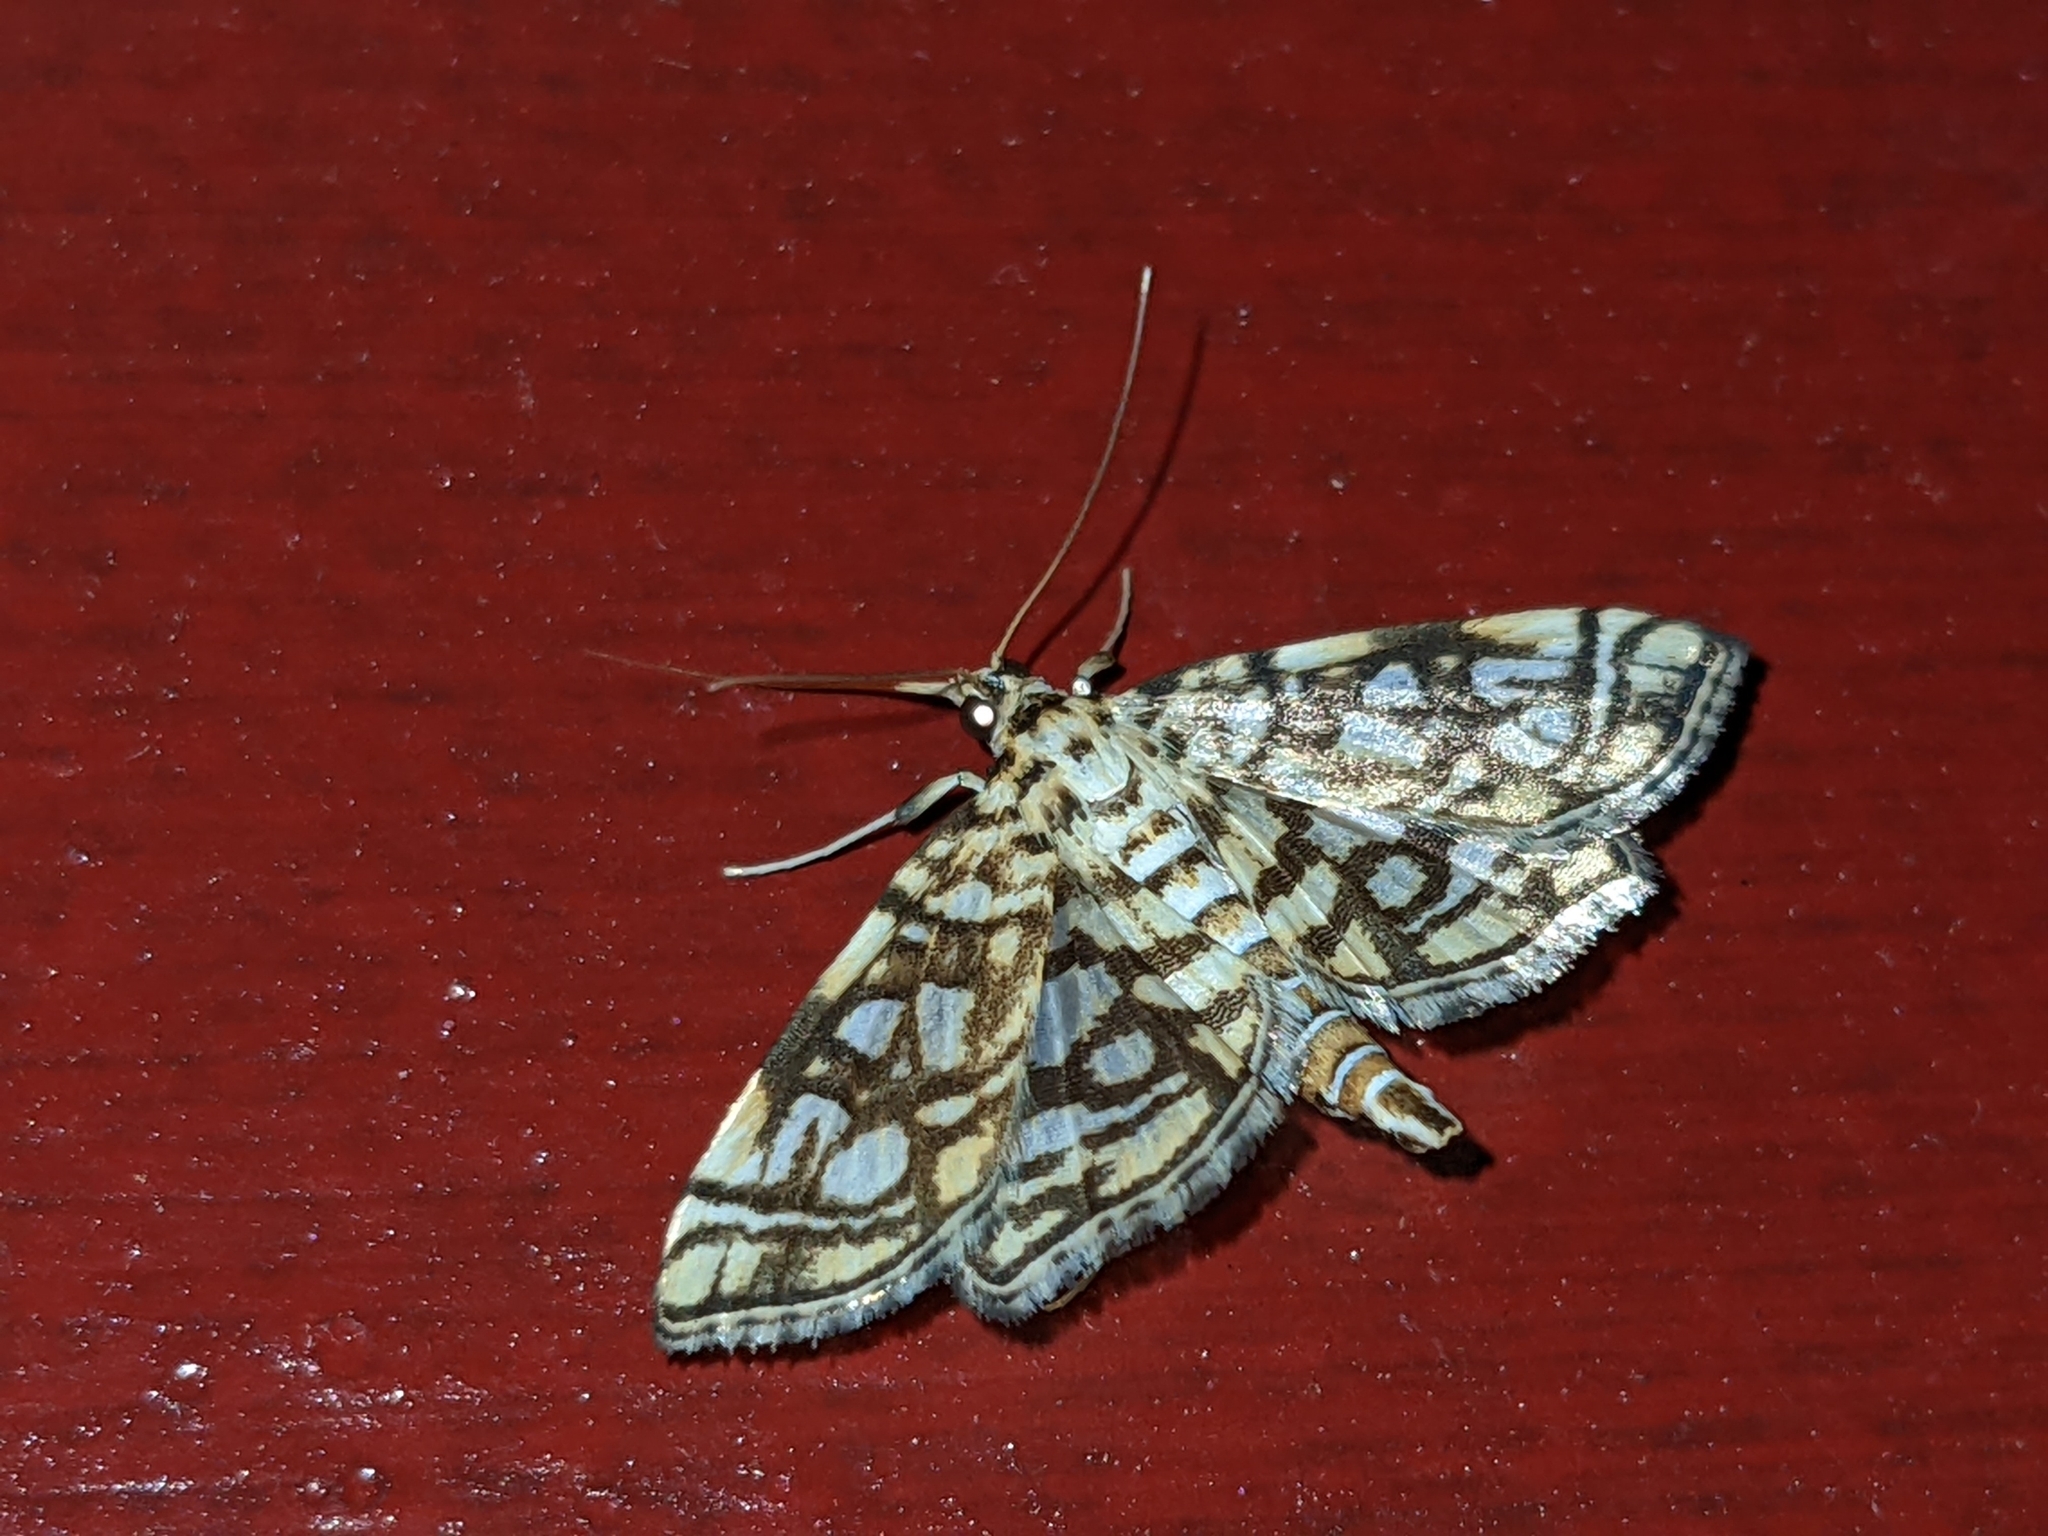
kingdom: Animalia
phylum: Arthropoda
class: Insecta
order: Lepidoptera
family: Crambidae
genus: Lygropia
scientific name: Lygropia rivulalis
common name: Bog lygropia moth
